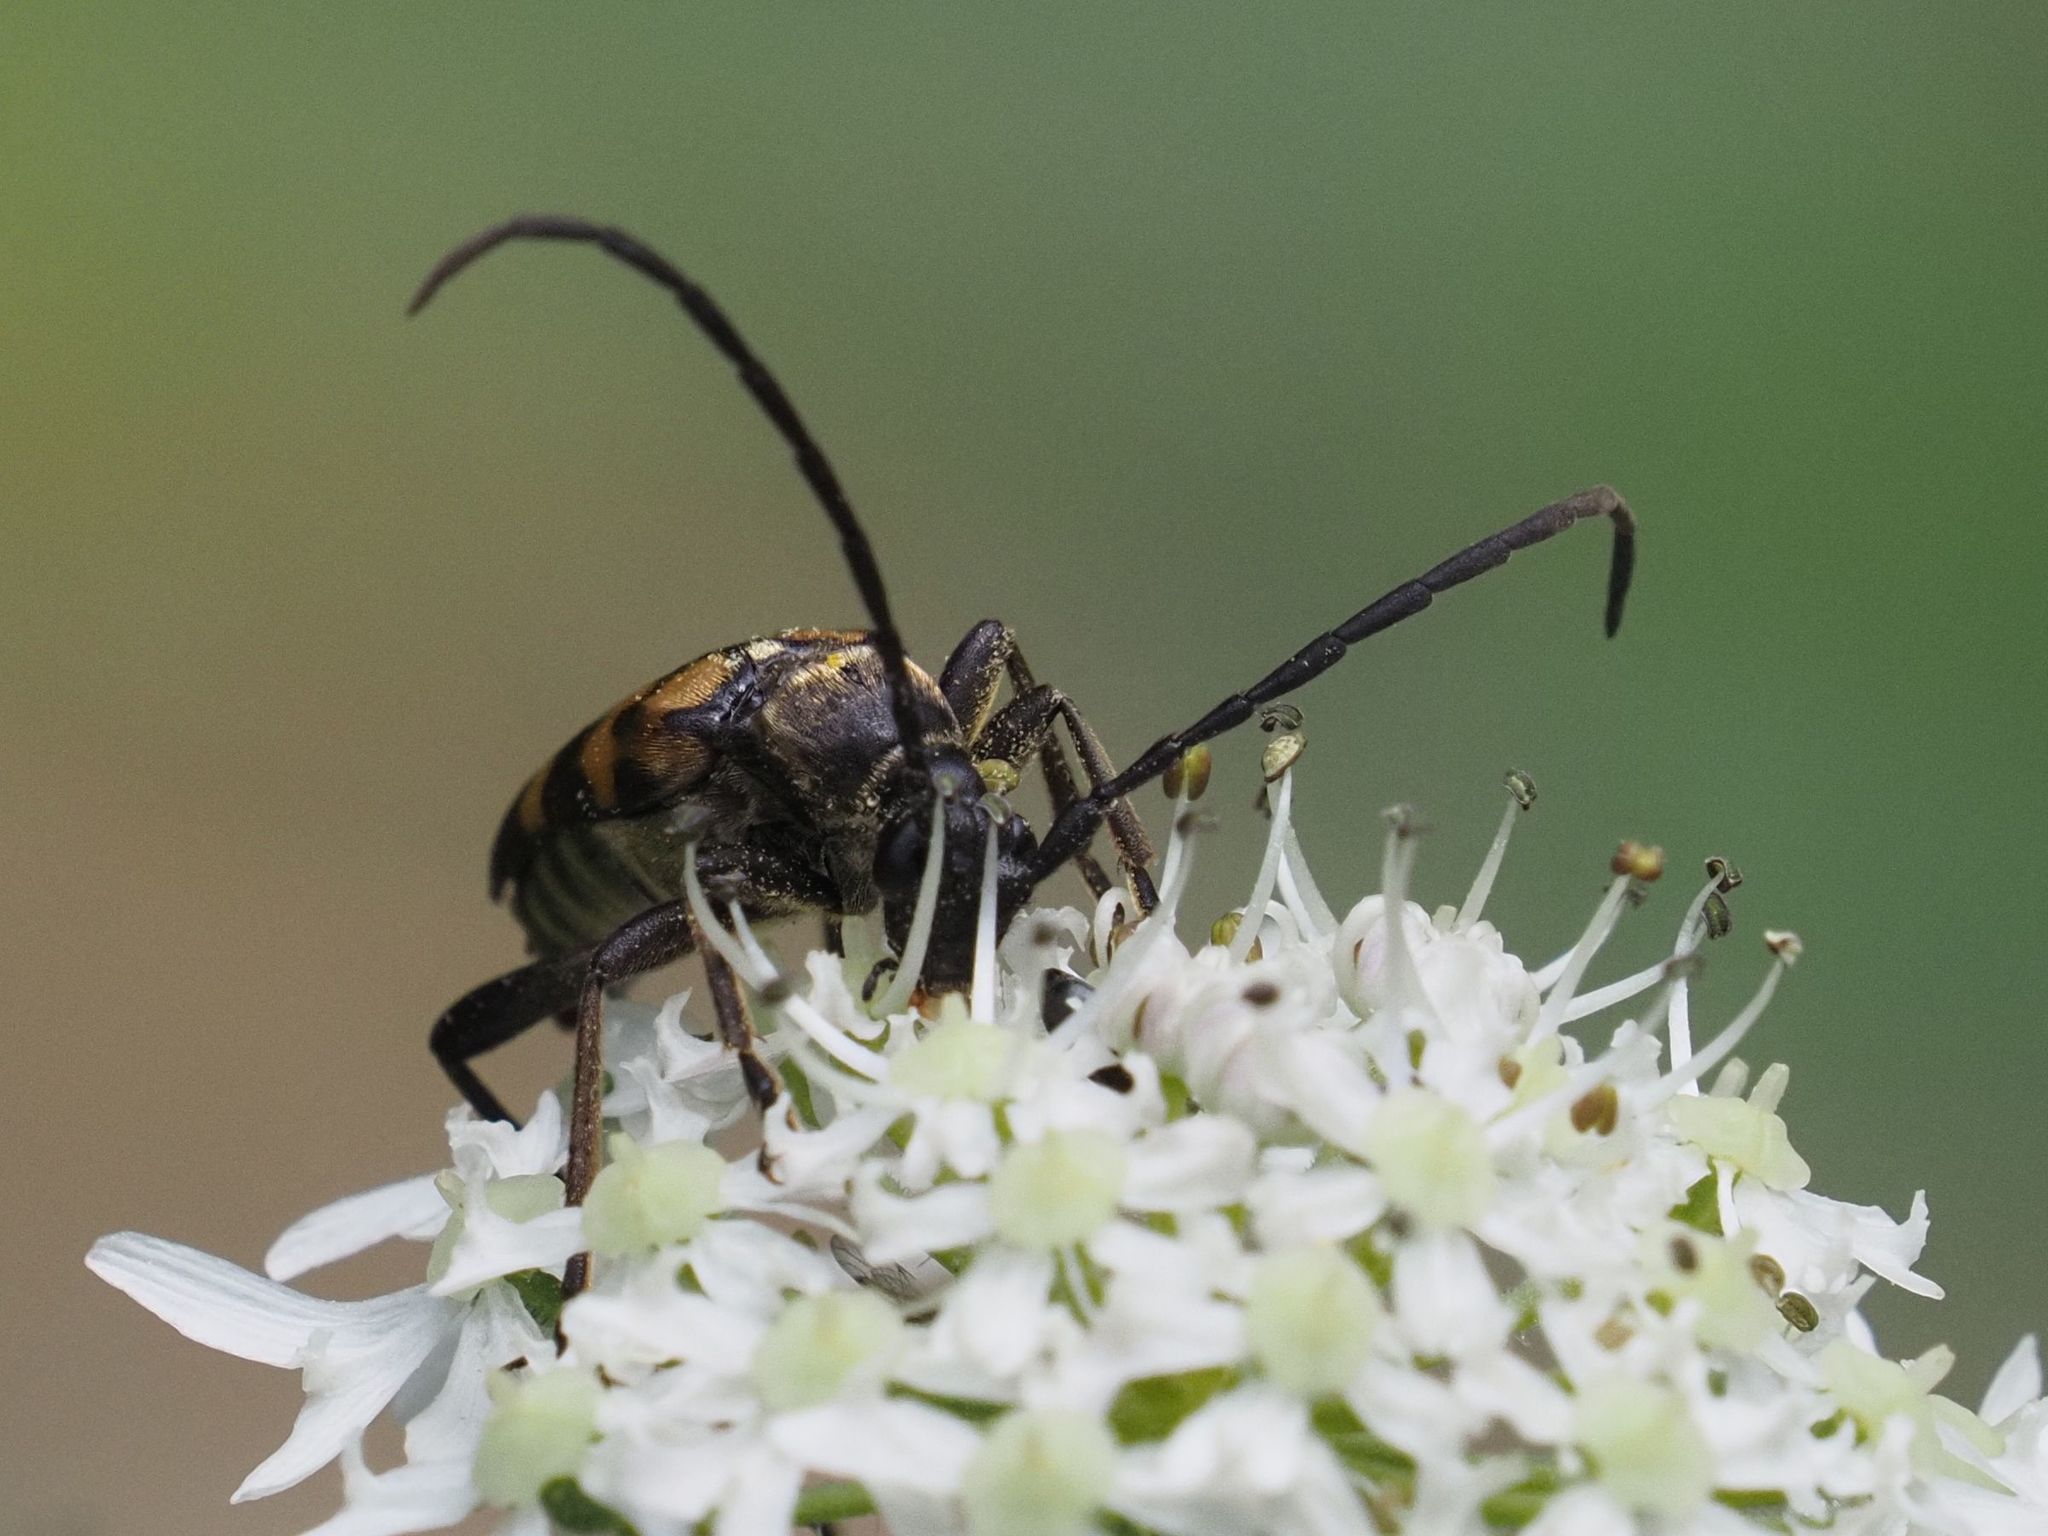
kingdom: Animalia
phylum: Arthropoda
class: Insecta
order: Coleoptera
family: Cerambycidae
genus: Leptura
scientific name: Leptura quadrifasciata
